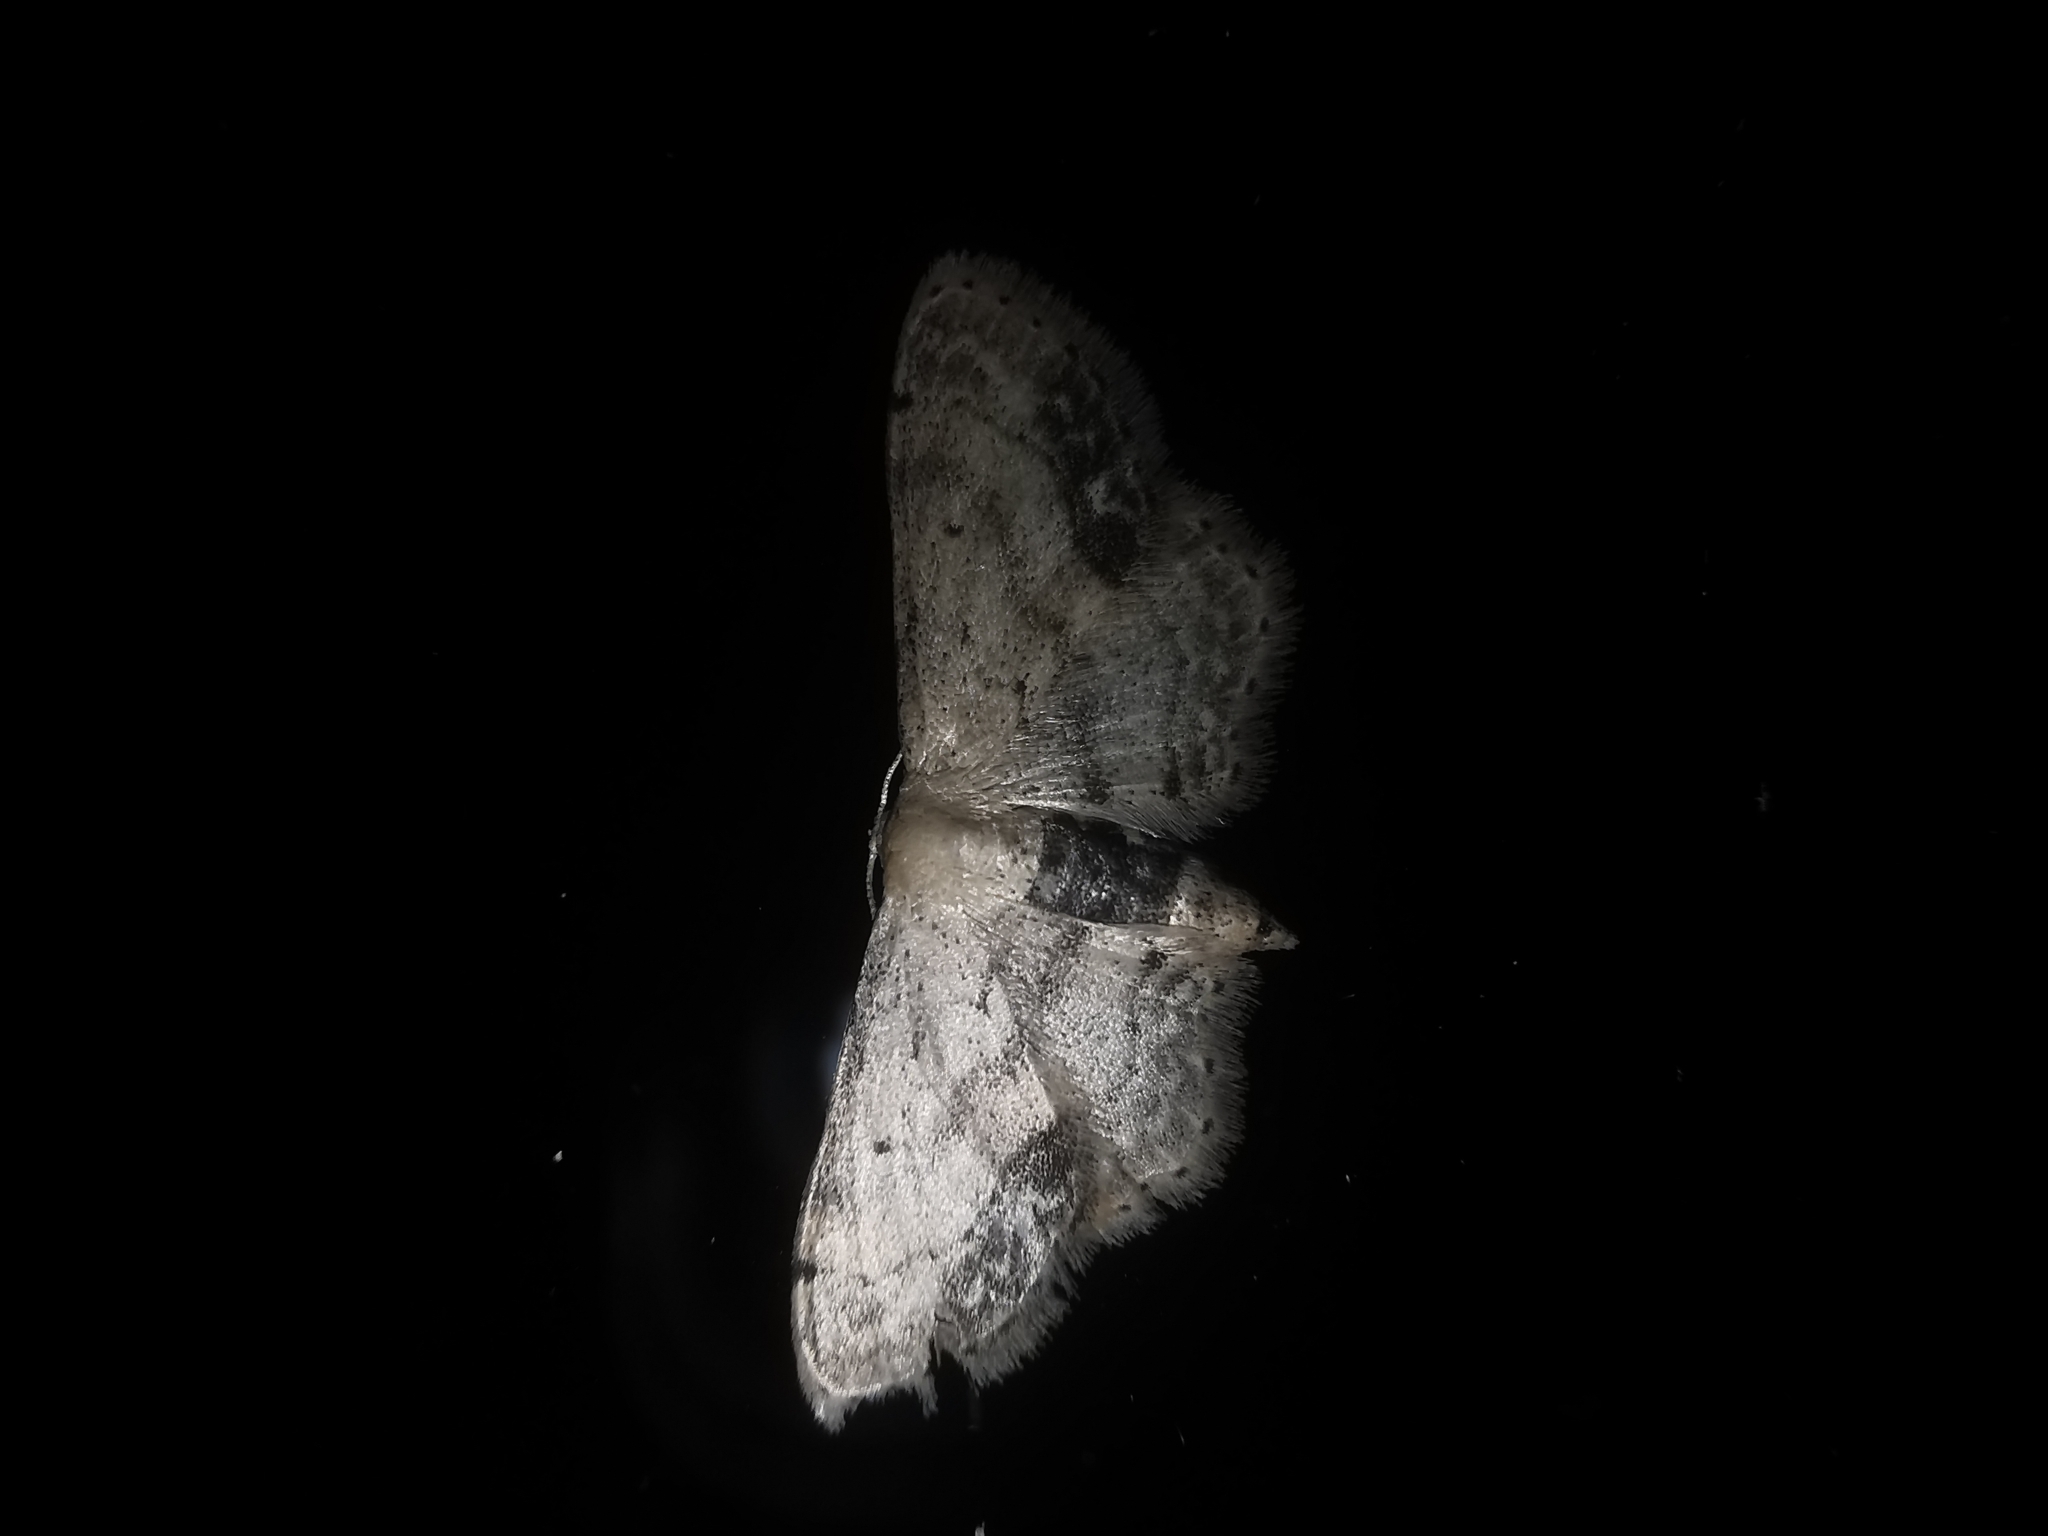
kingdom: Animalia
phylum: Arthropoda
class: Insecta
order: Lepidoptera
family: Geometridae
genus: Idaea
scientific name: Idaea dimidiata
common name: Single-dotted wave
